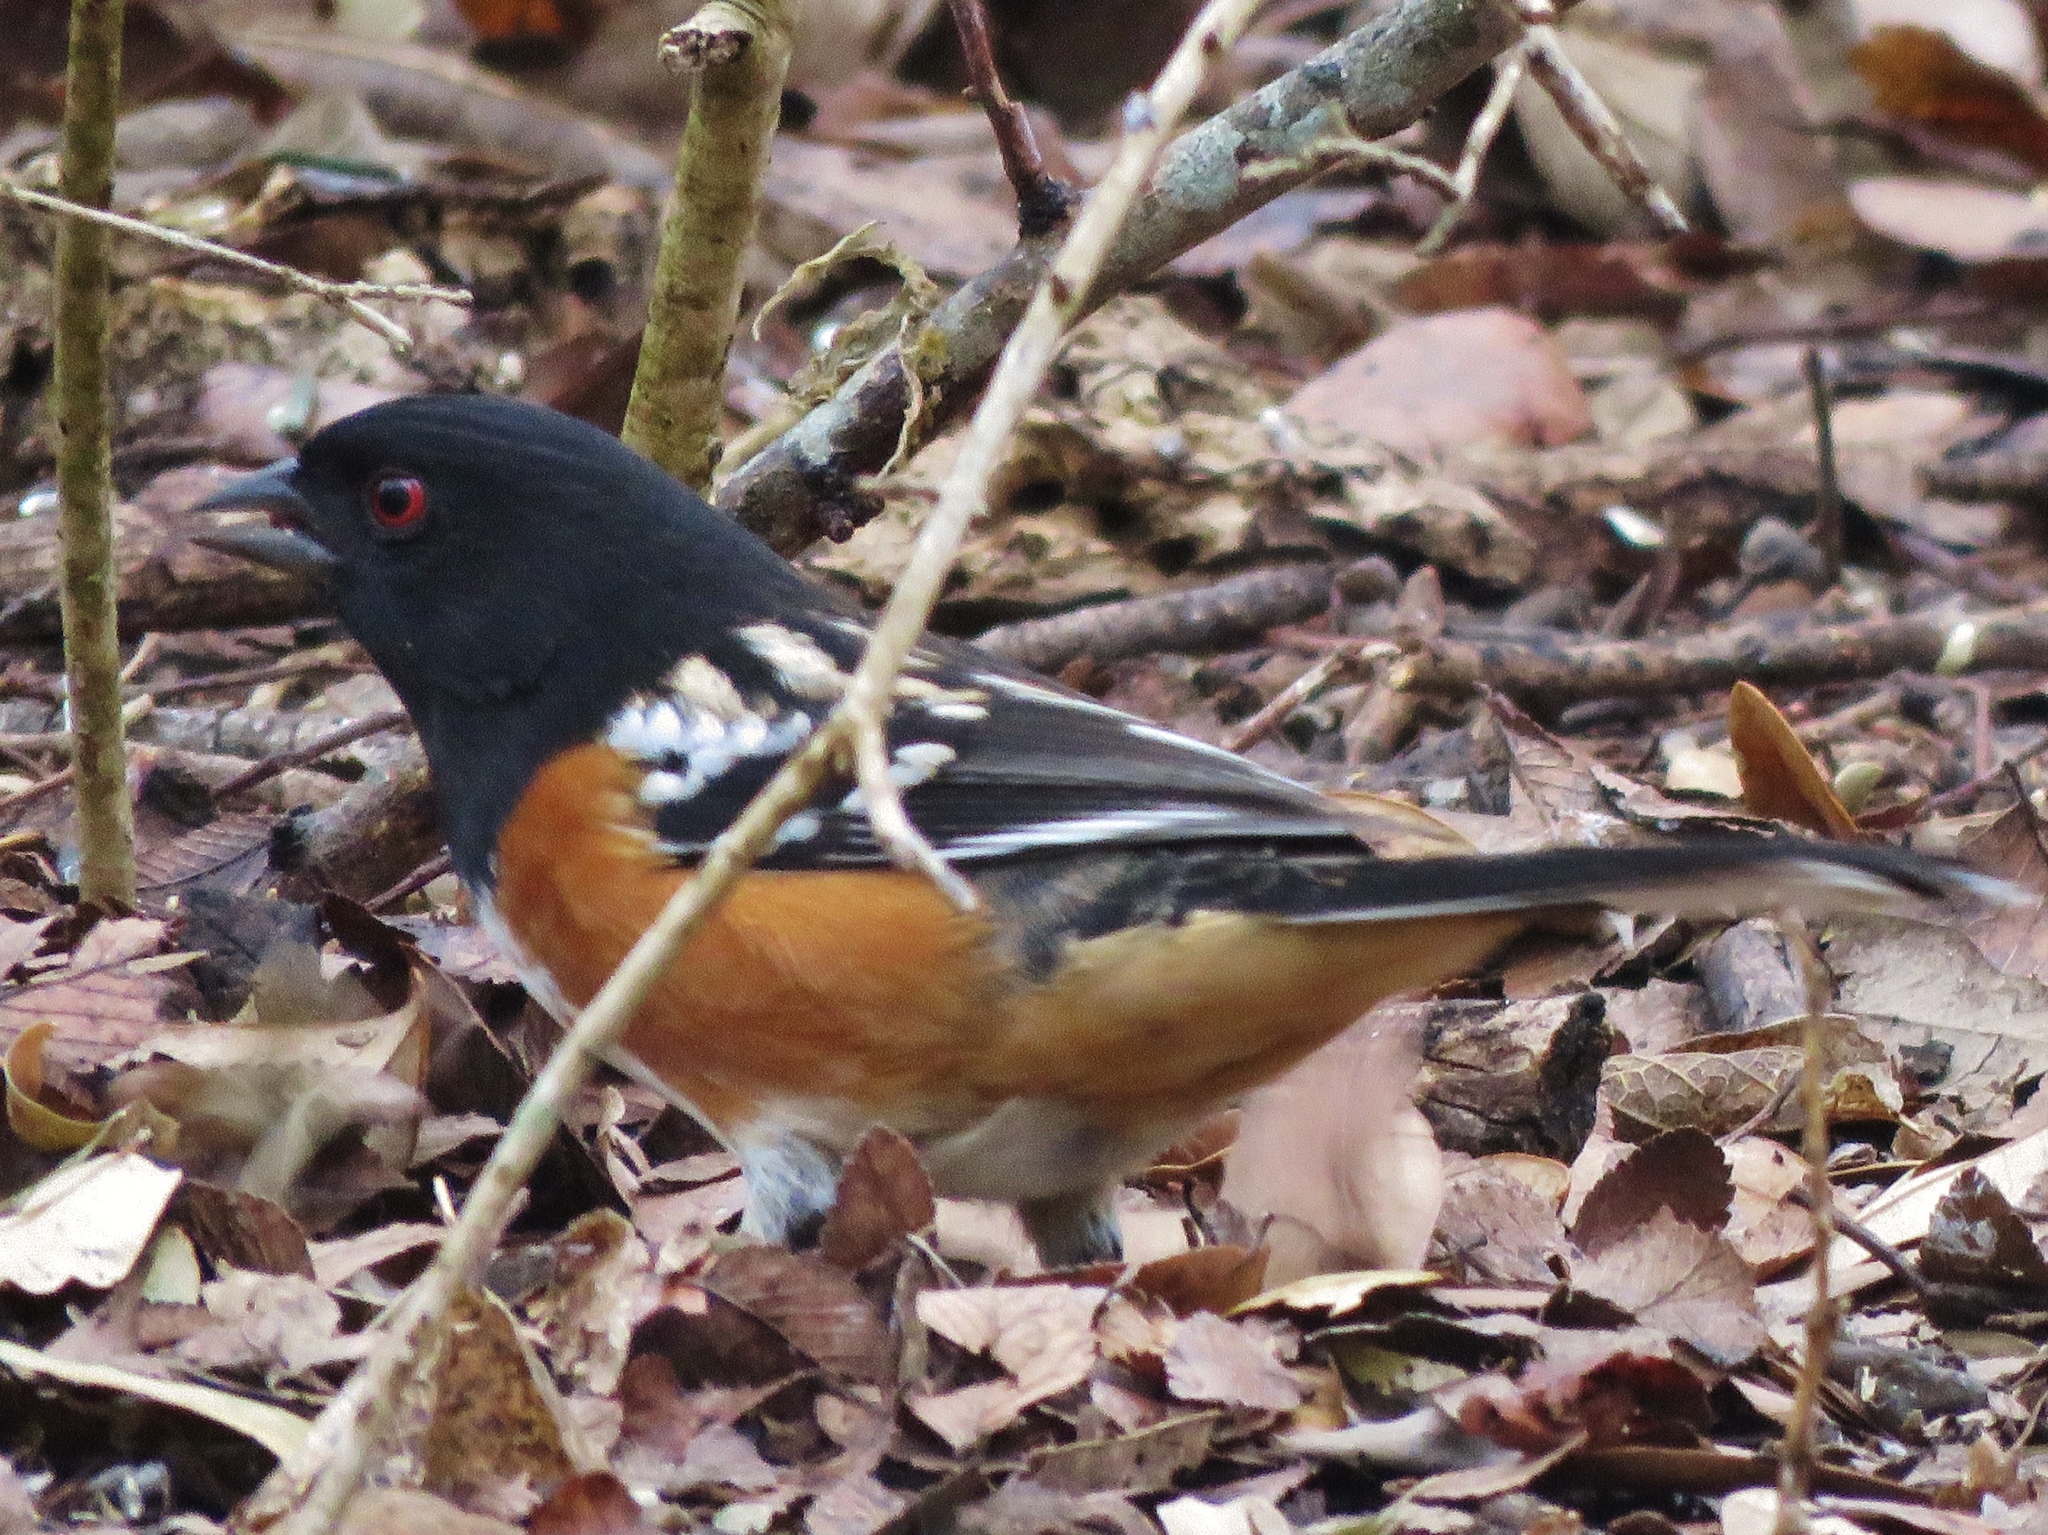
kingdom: Animalia
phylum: Chordata
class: Aves
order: Passeriformes
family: Passerellidae
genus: Pipilo
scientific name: Pipilo maculatus
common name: Spotted towhee
